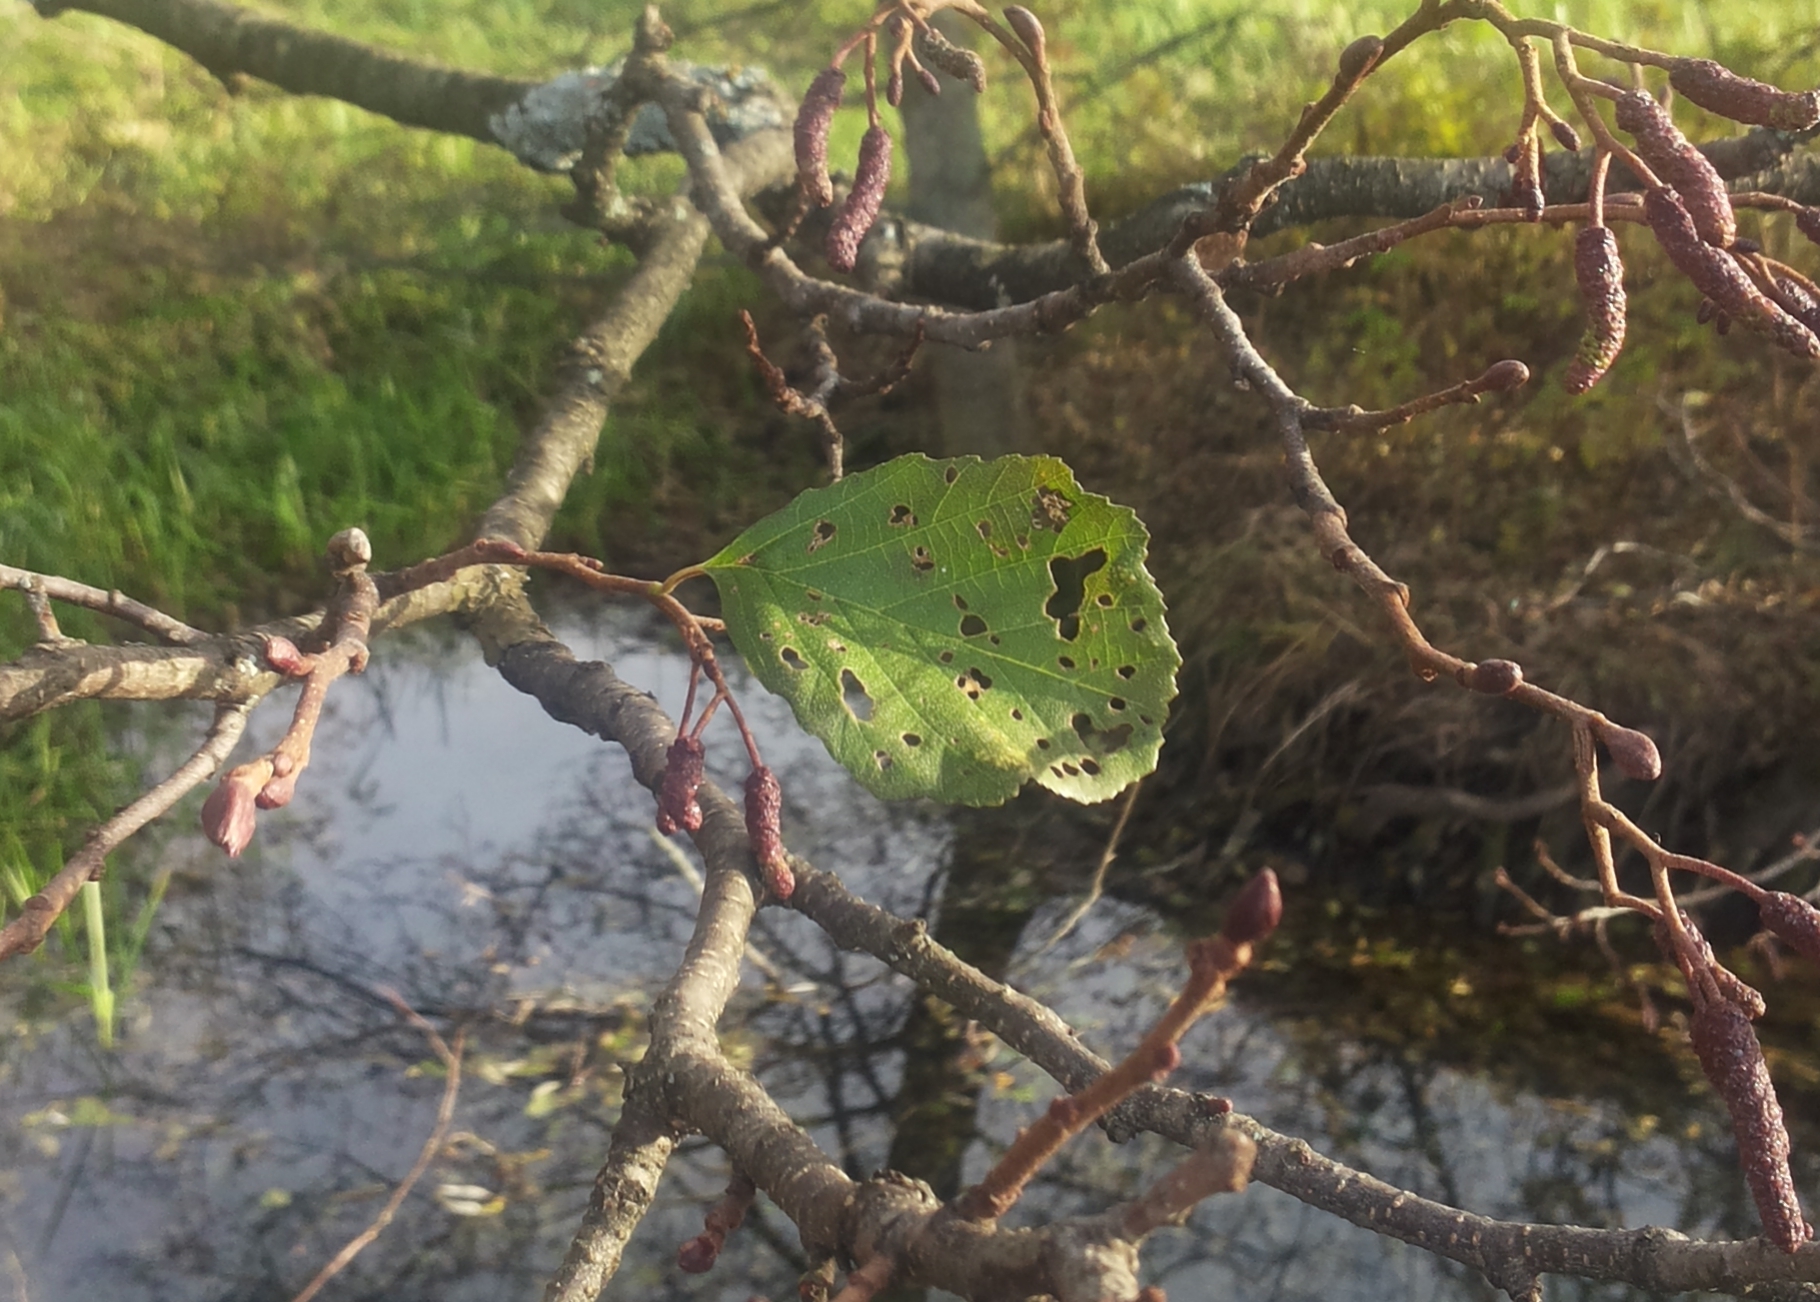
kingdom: Plantae
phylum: Tracheophyta
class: Magnoliopsida
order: Fagales
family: Betulaceae
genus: Alnus
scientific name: Alnus glutinosa
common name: Black alder
